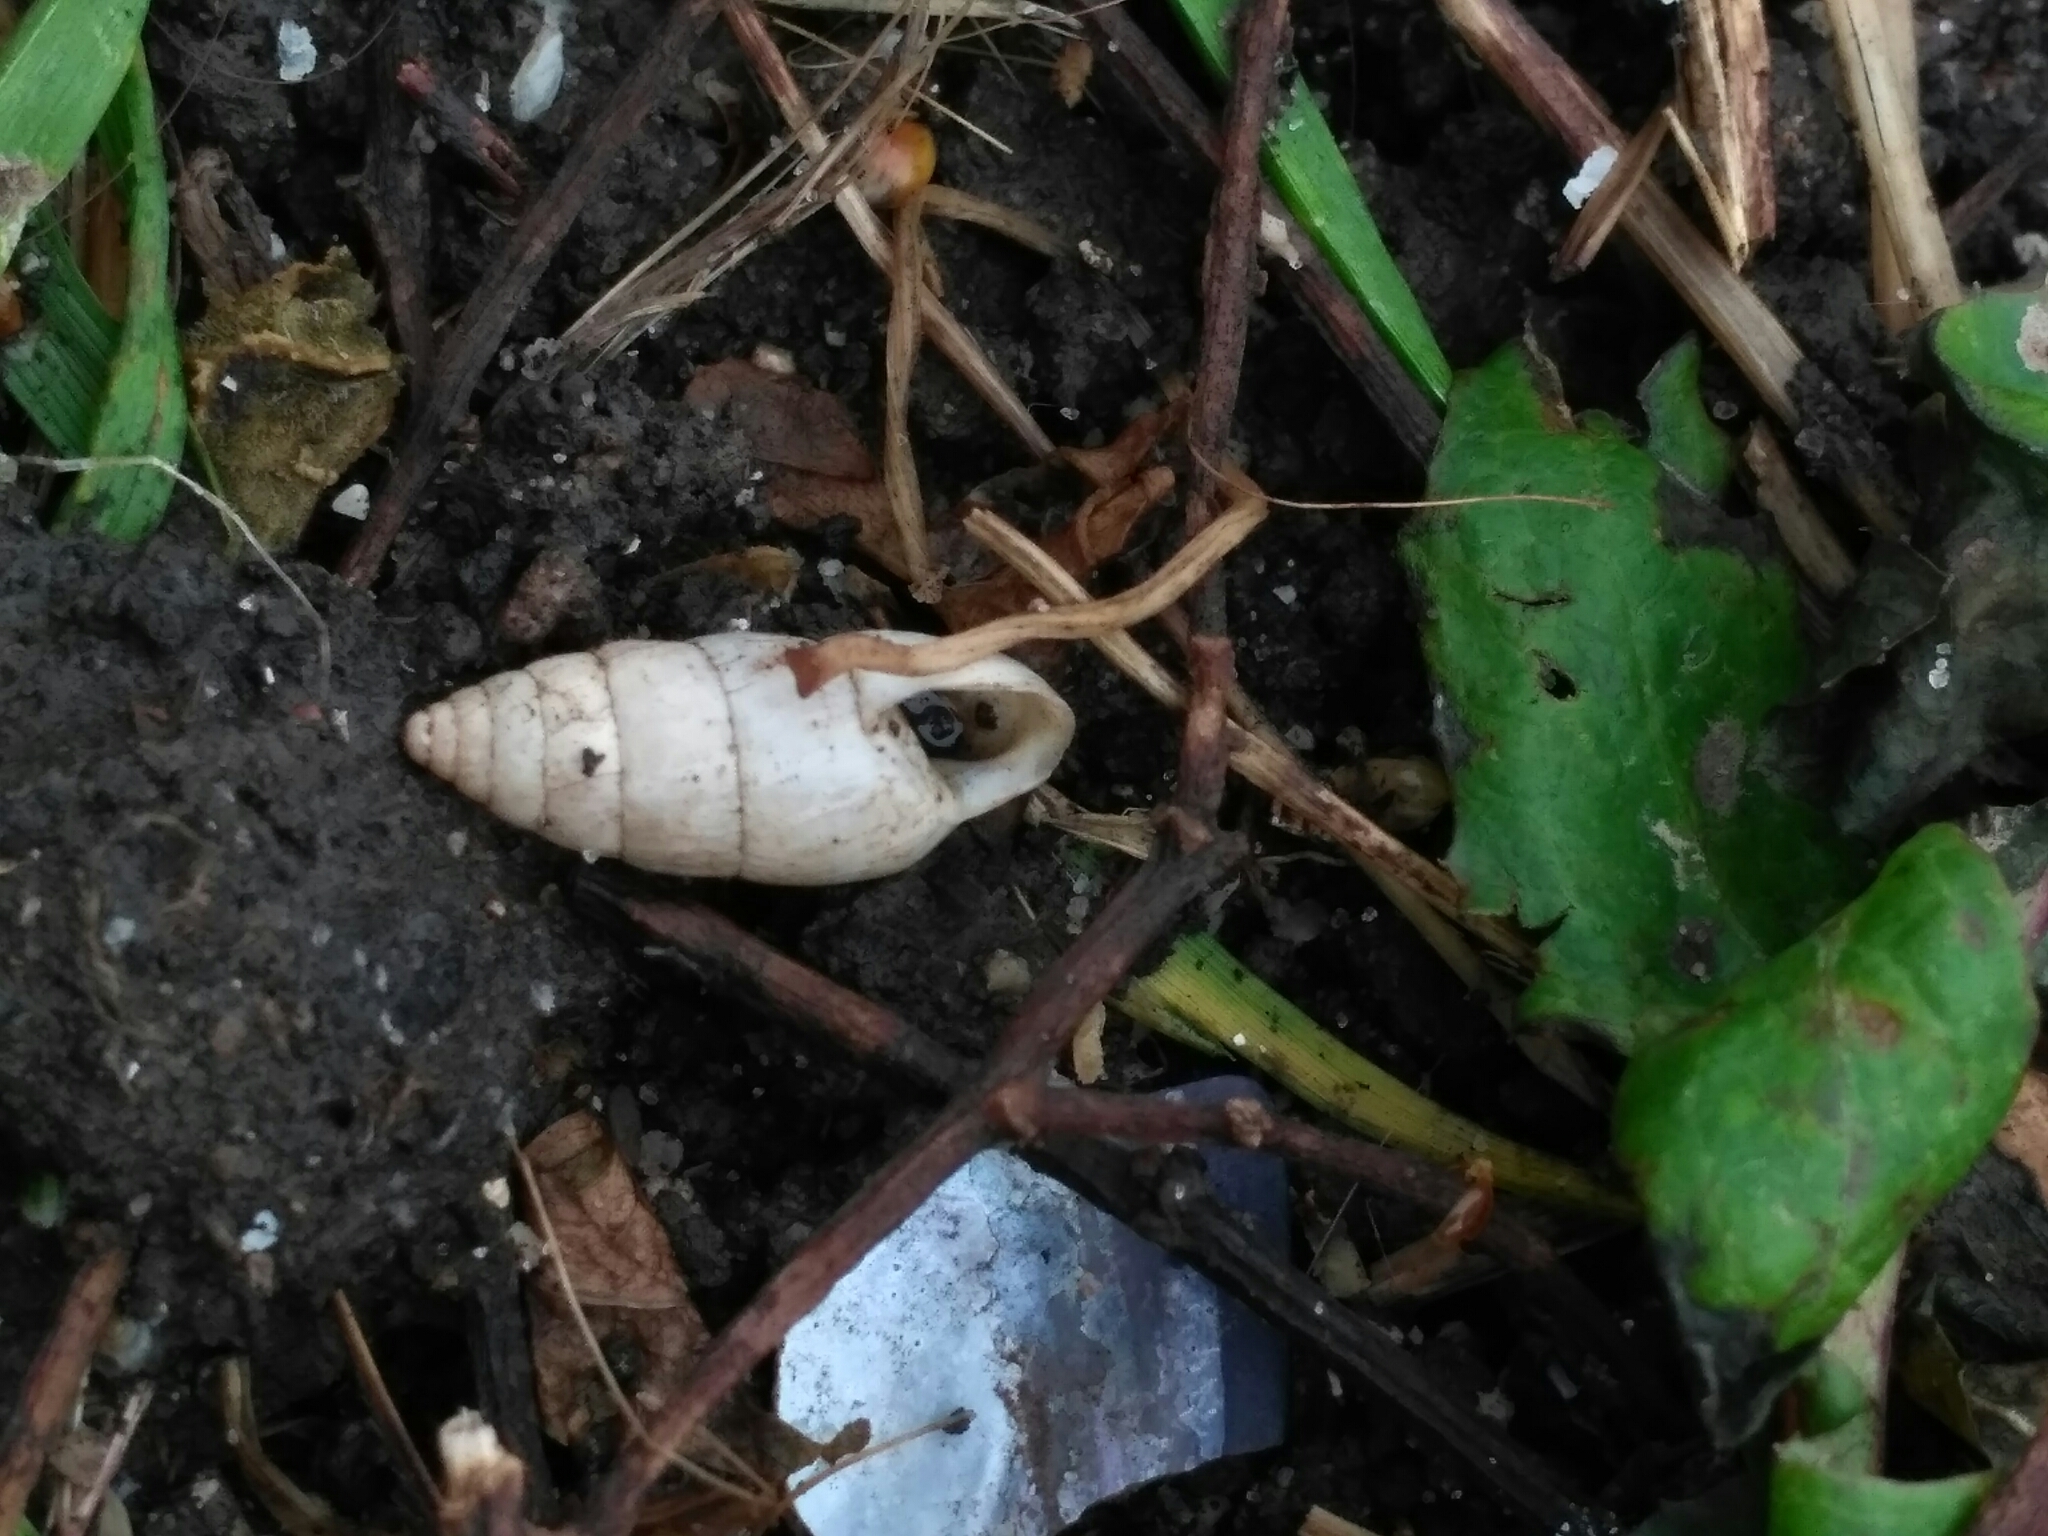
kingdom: Animalia
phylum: Mollusca
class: Gastropoda
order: Stylommatophora
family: Enidae
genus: Brephulopsis
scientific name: Brephulopsis cylindrica
